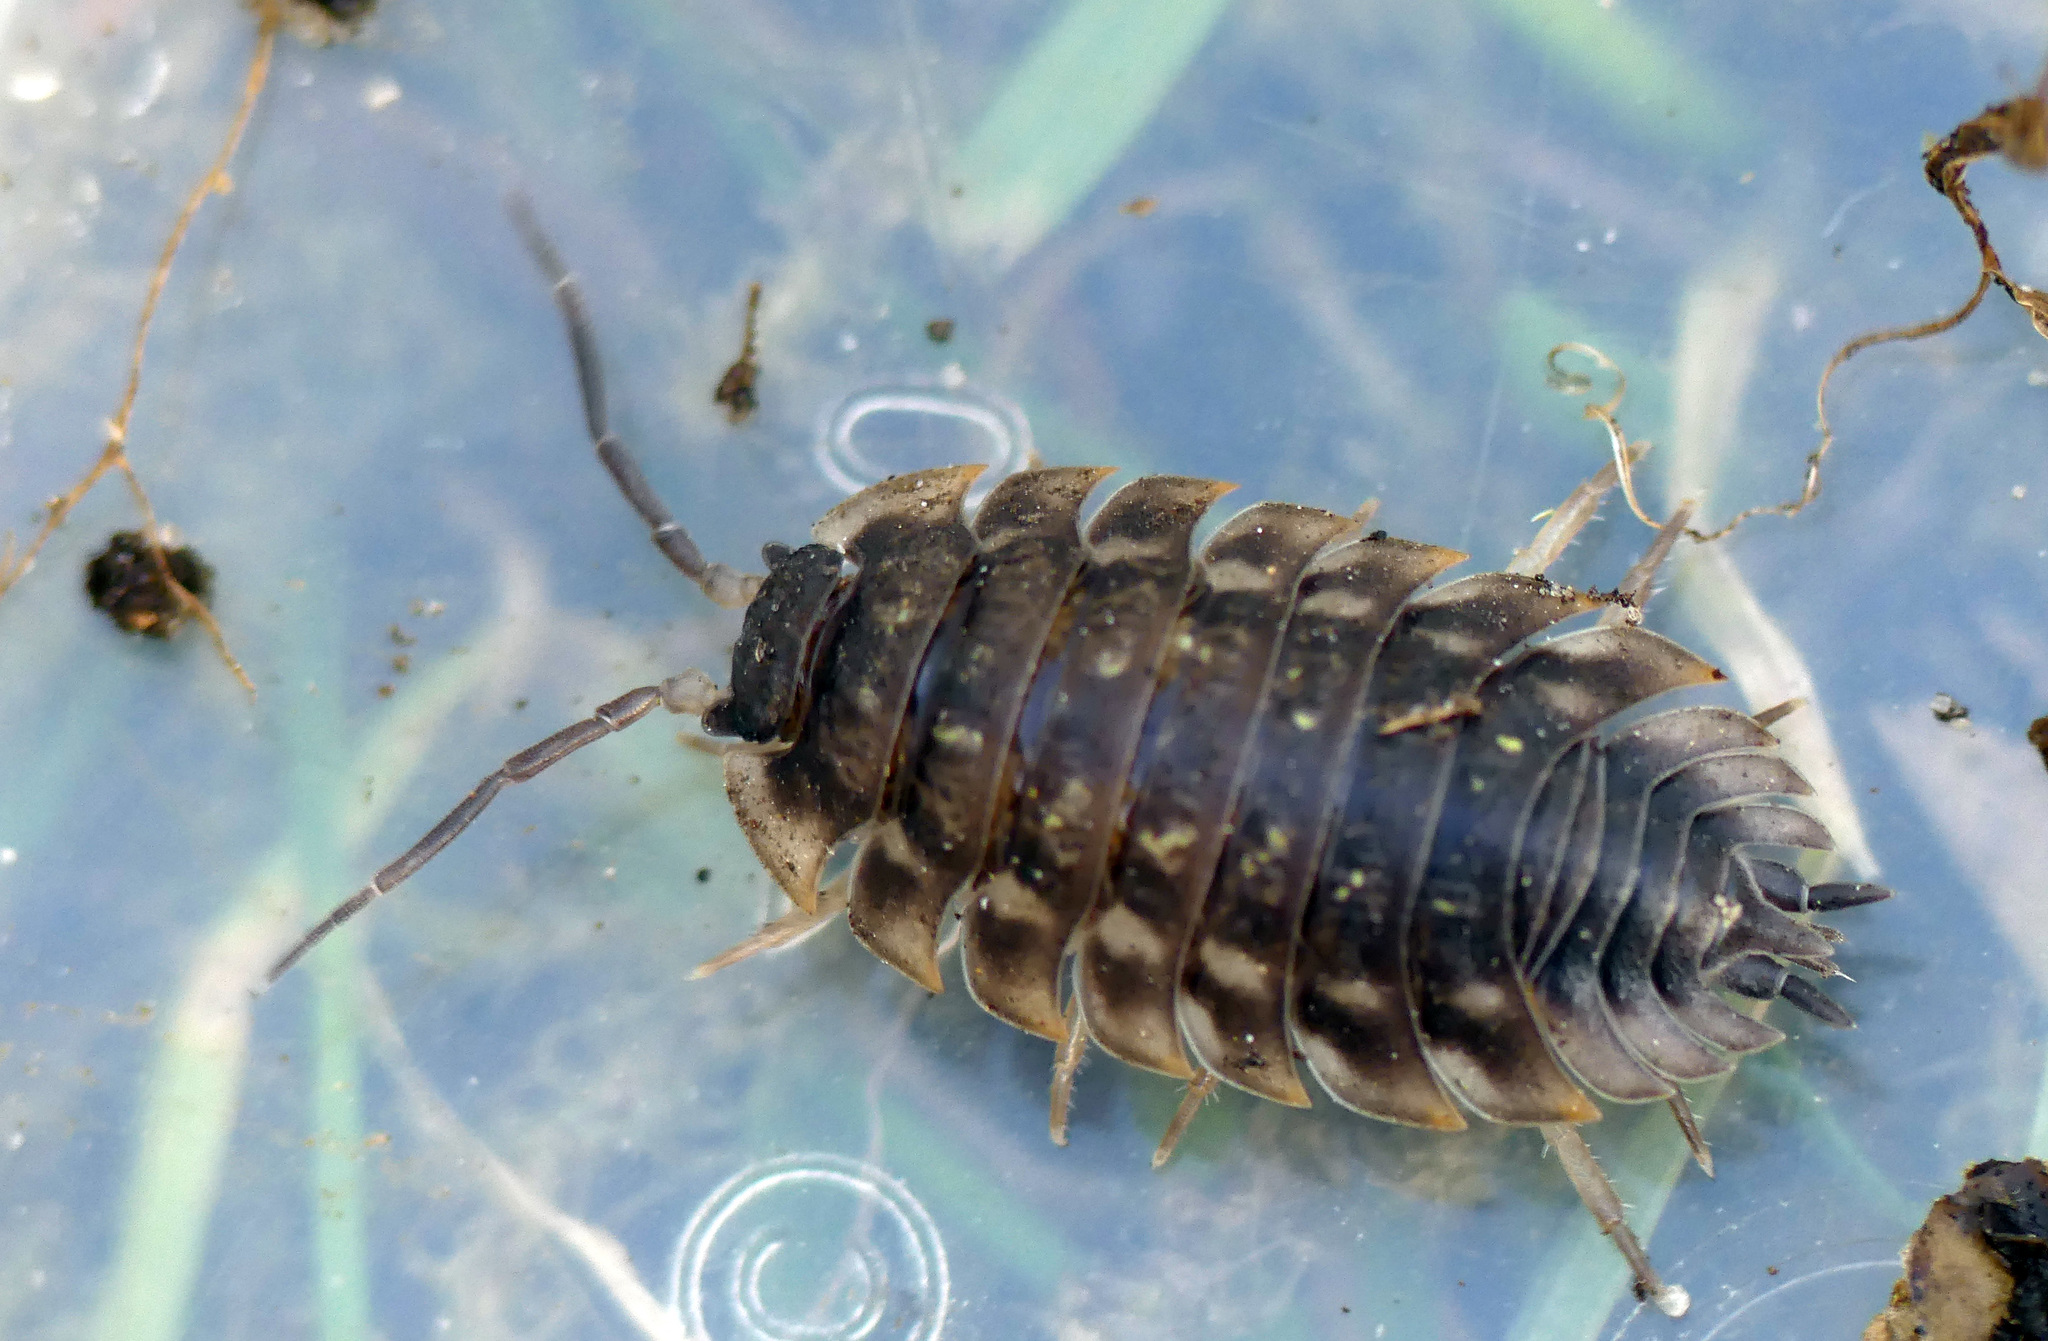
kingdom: Animalia
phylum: Arthropoda
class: Malacostraca
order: Isopoda
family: Oniscidae
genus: Oniscus
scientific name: Oniscus asellus
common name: Common shiny woodlouse
